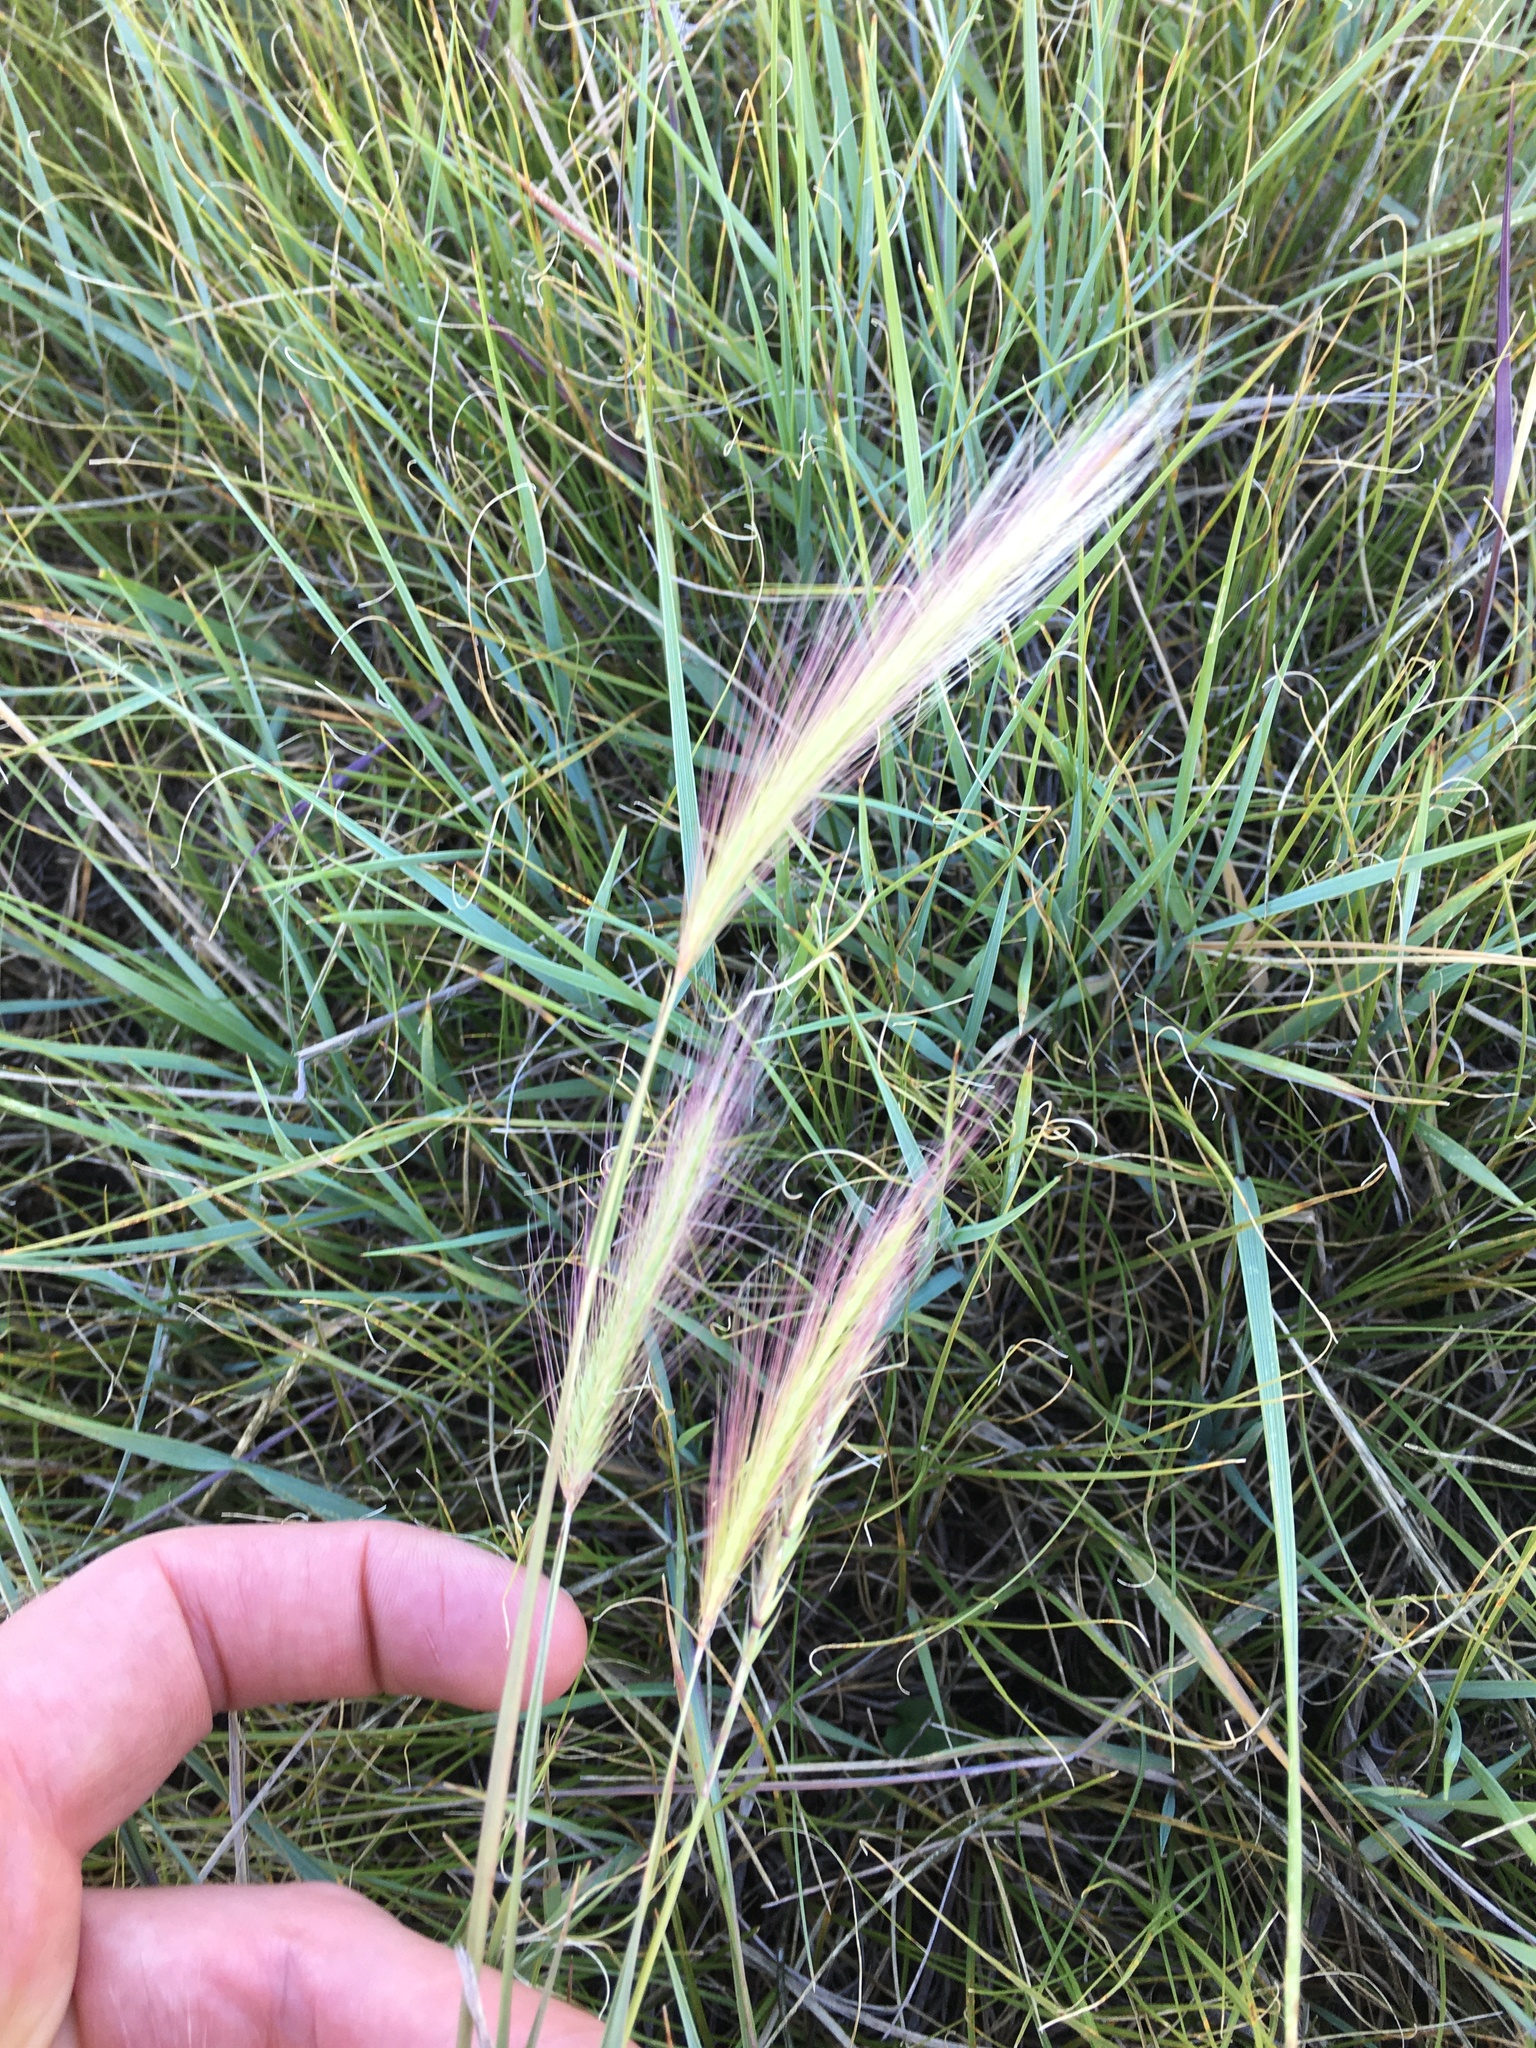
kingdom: Plantae
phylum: Tracheophyta
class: Liliopsida
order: Poales
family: Poaceae
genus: Hordeum
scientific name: Hordeum jubatum
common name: Foxtail barley
